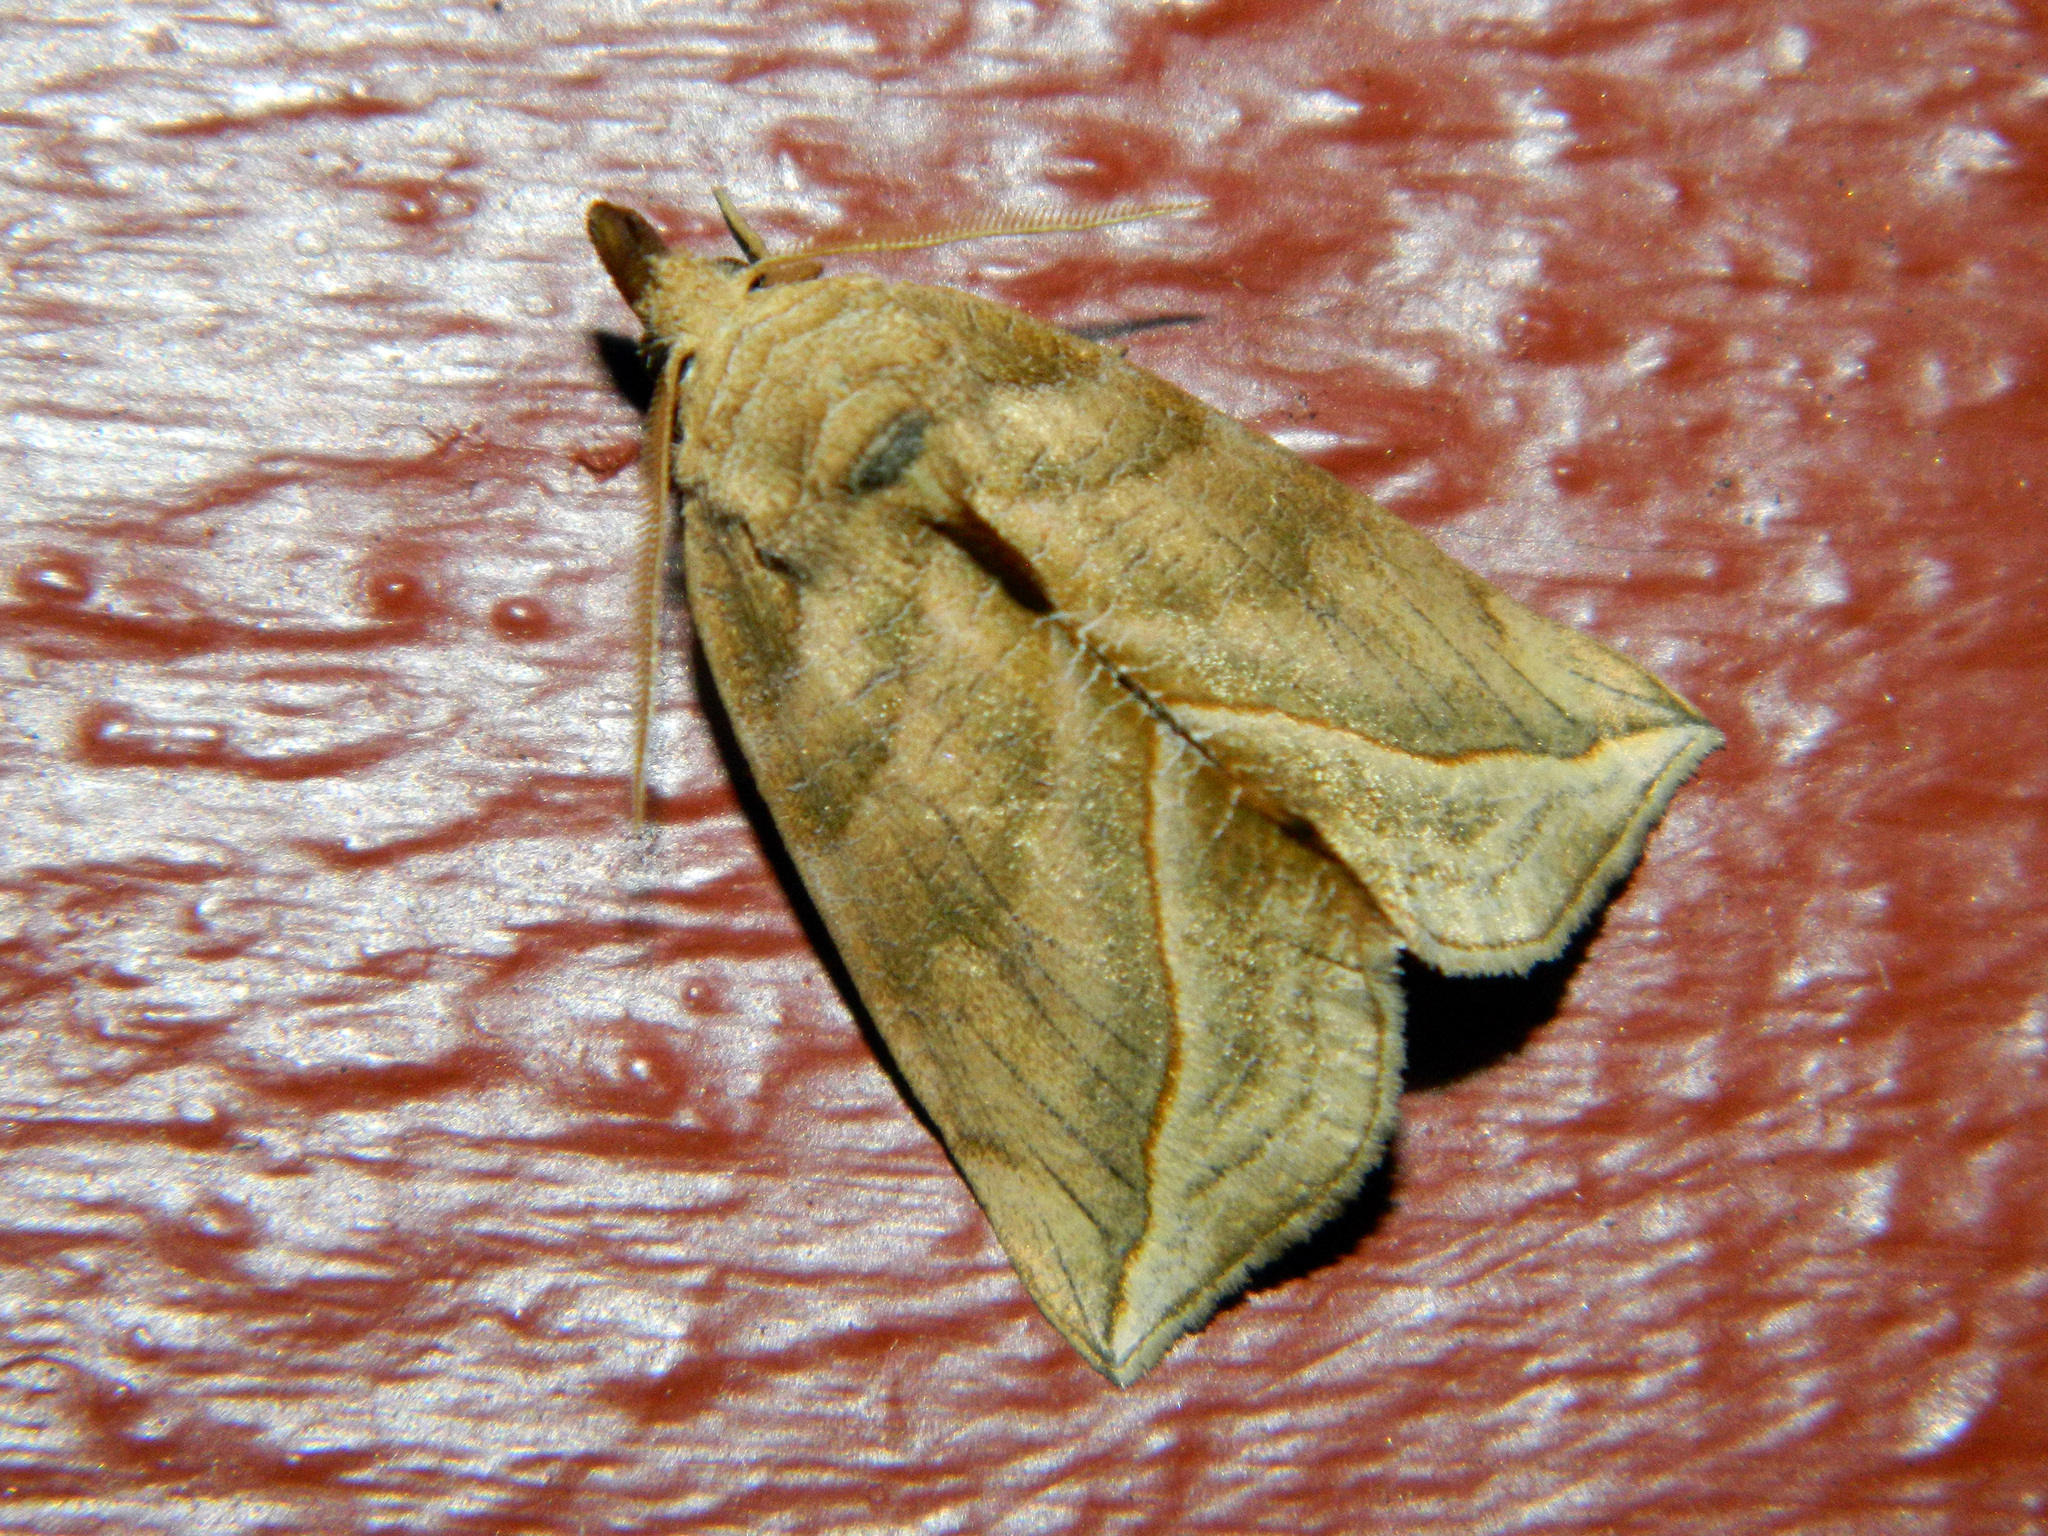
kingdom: Animalia
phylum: Arthropoda
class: Insecta
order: Lepidoptera
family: Erebidae
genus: Calyptra
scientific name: Calyptra canadensis
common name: Canadian owlet
